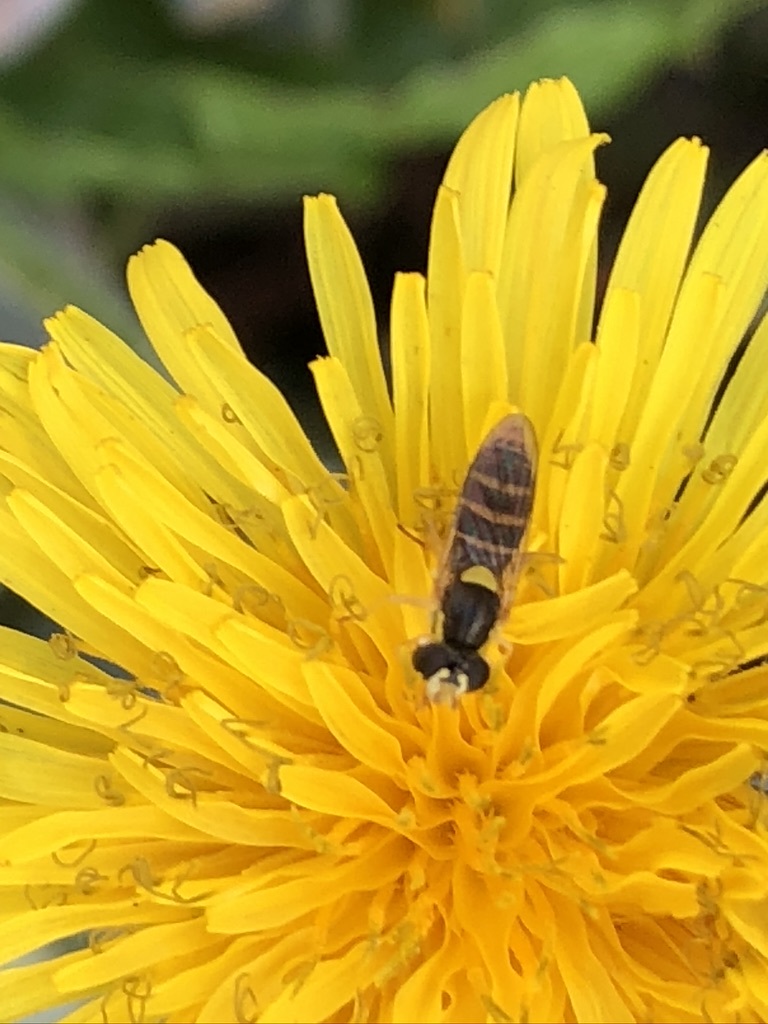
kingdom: Animalia
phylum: Arthropoda
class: Insecta
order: Diptera
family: Syrphidae
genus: Sphaerophoria
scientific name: Sphaerophoria sulphuripes
